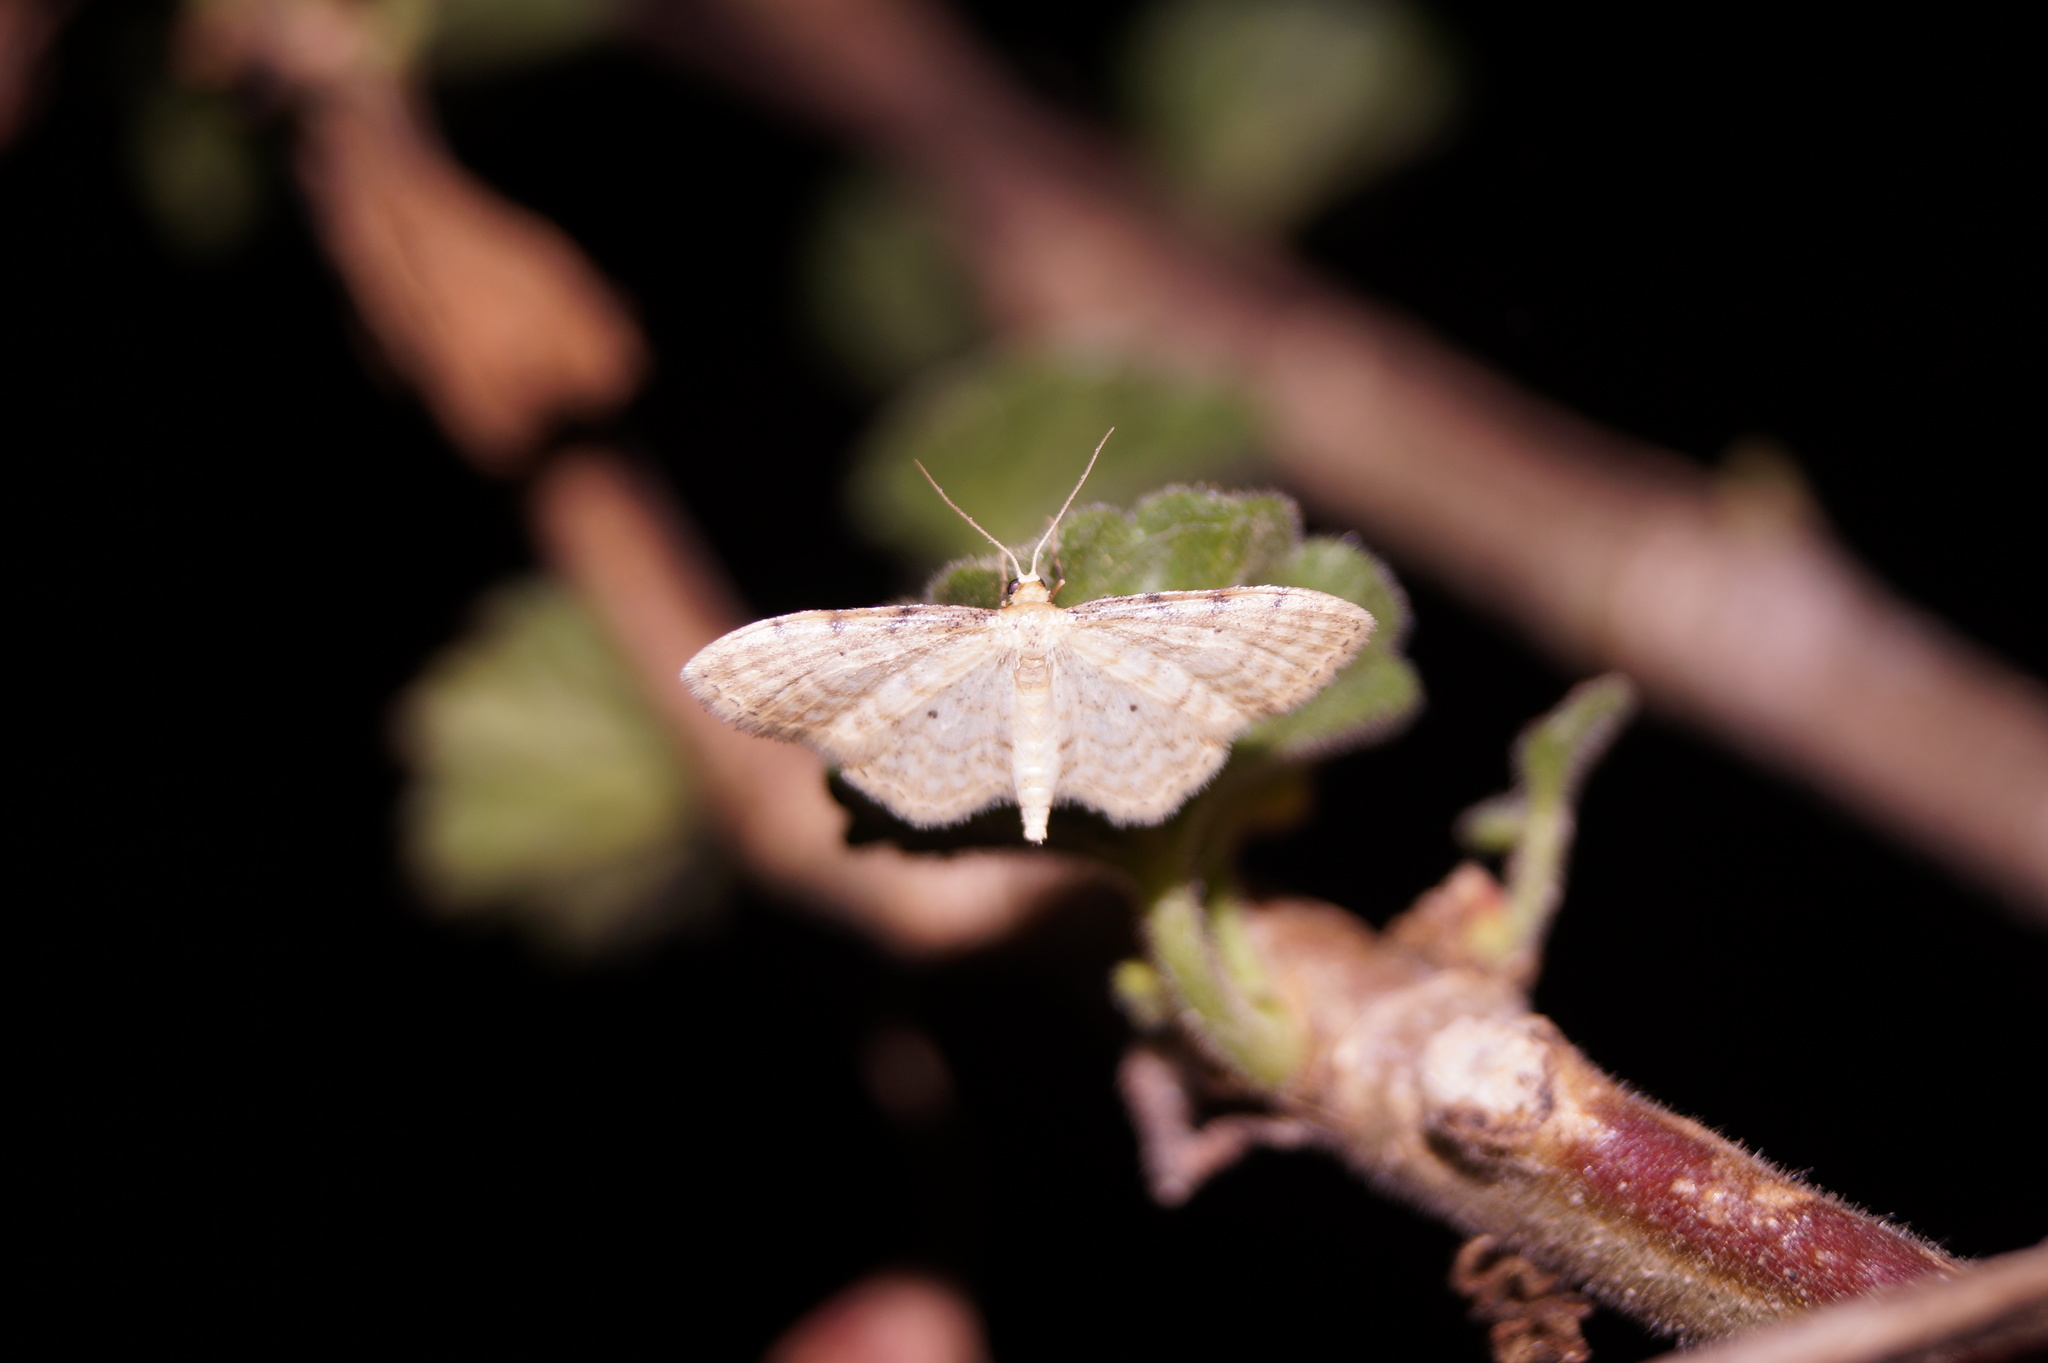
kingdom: Animalia
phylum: Arthropoda
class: Insecta
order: Lepidoptera
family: Geometridae
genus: Idaea
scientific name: Idaea fuscovenosa
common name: Dwarf cream wave
